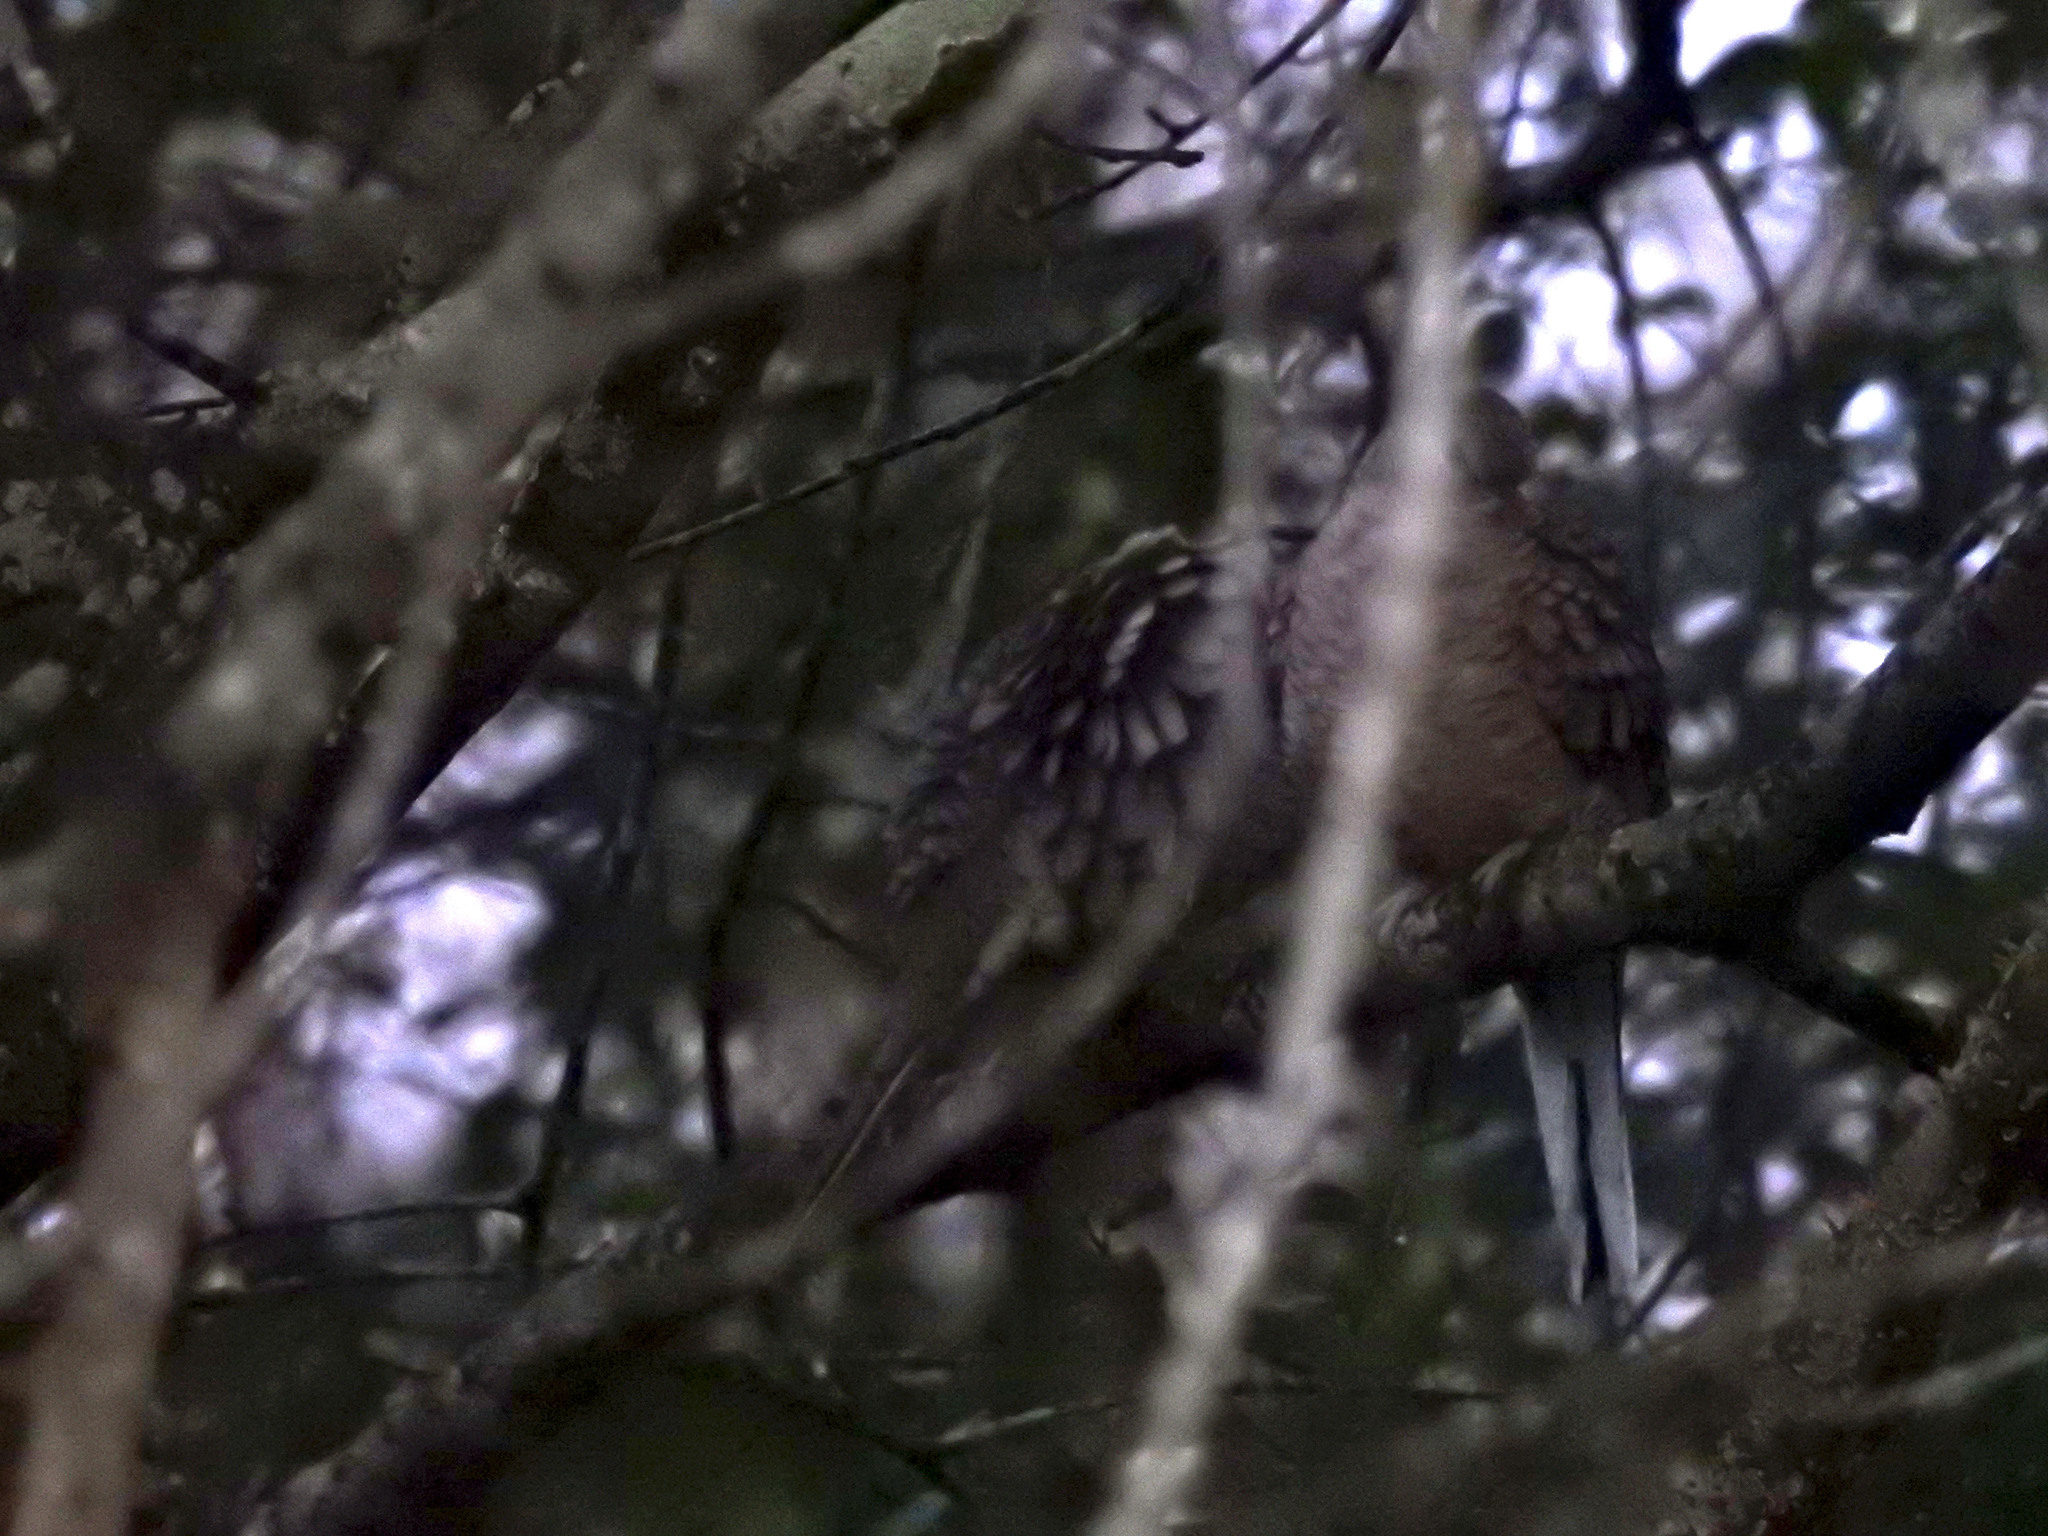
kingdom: Animalia
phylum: Chordata
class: Aves
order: Columbiformes
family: Columbidae
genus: Columbina
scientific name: Columbina inca
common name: Inca dove
